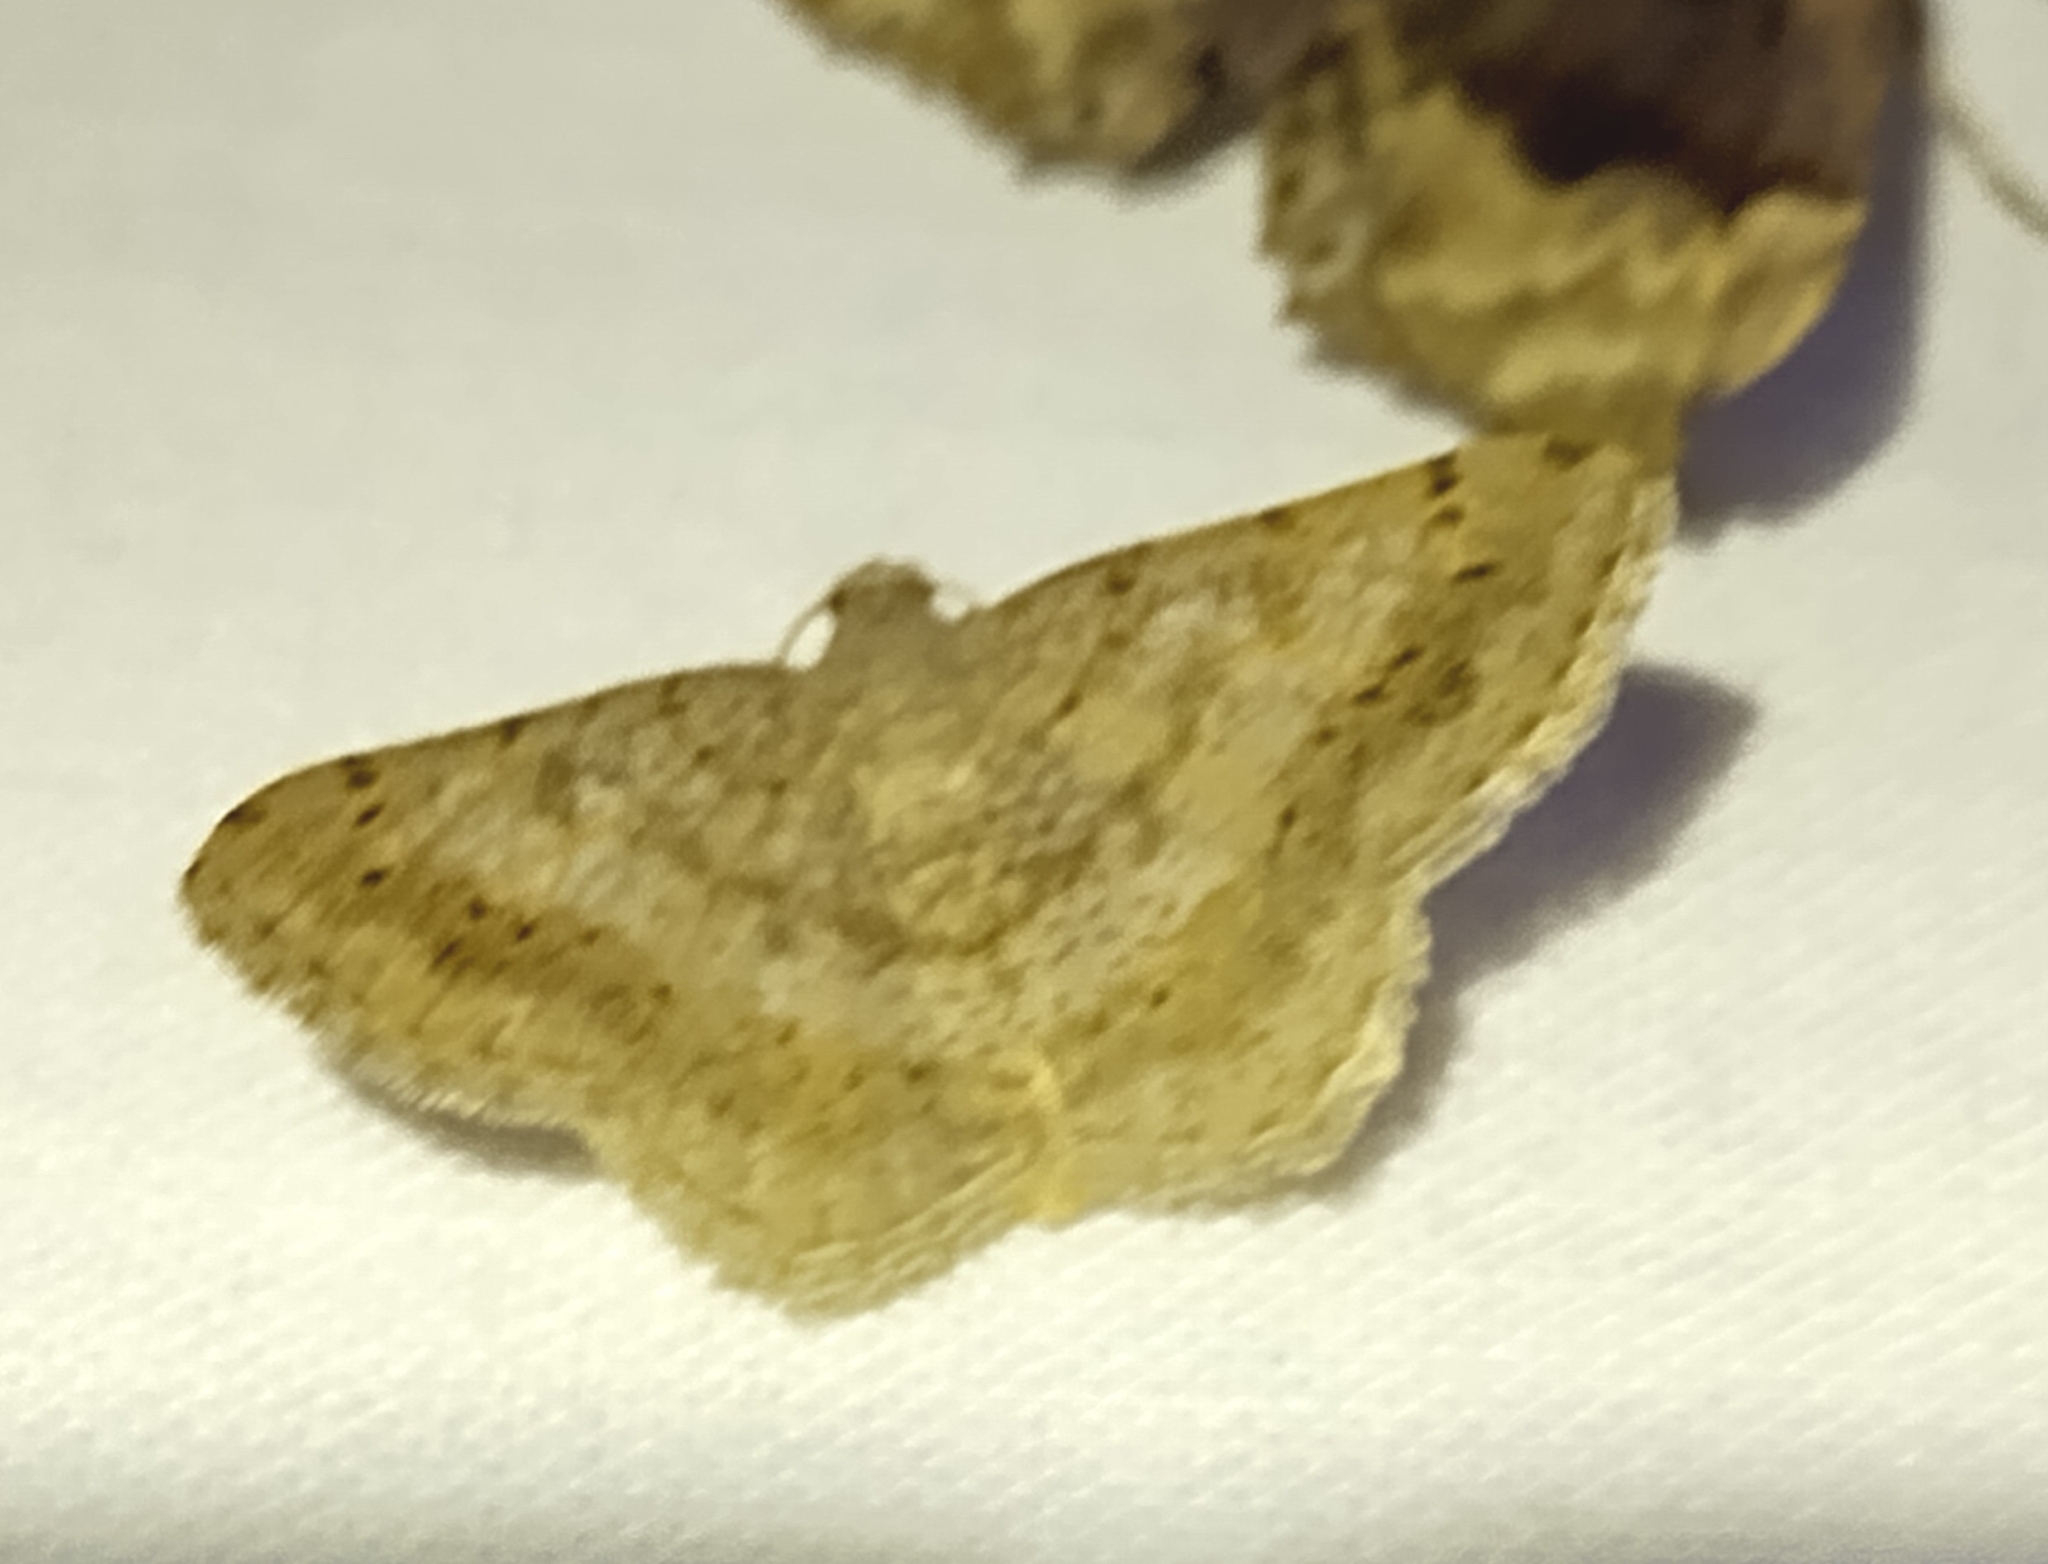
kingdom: Animalia
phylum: Arthropoda
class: Insecta
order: Lepidoptera
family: Geometridae
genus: Digrammia
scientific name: Digrammia ocellinata
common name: Faint-spotted angle
